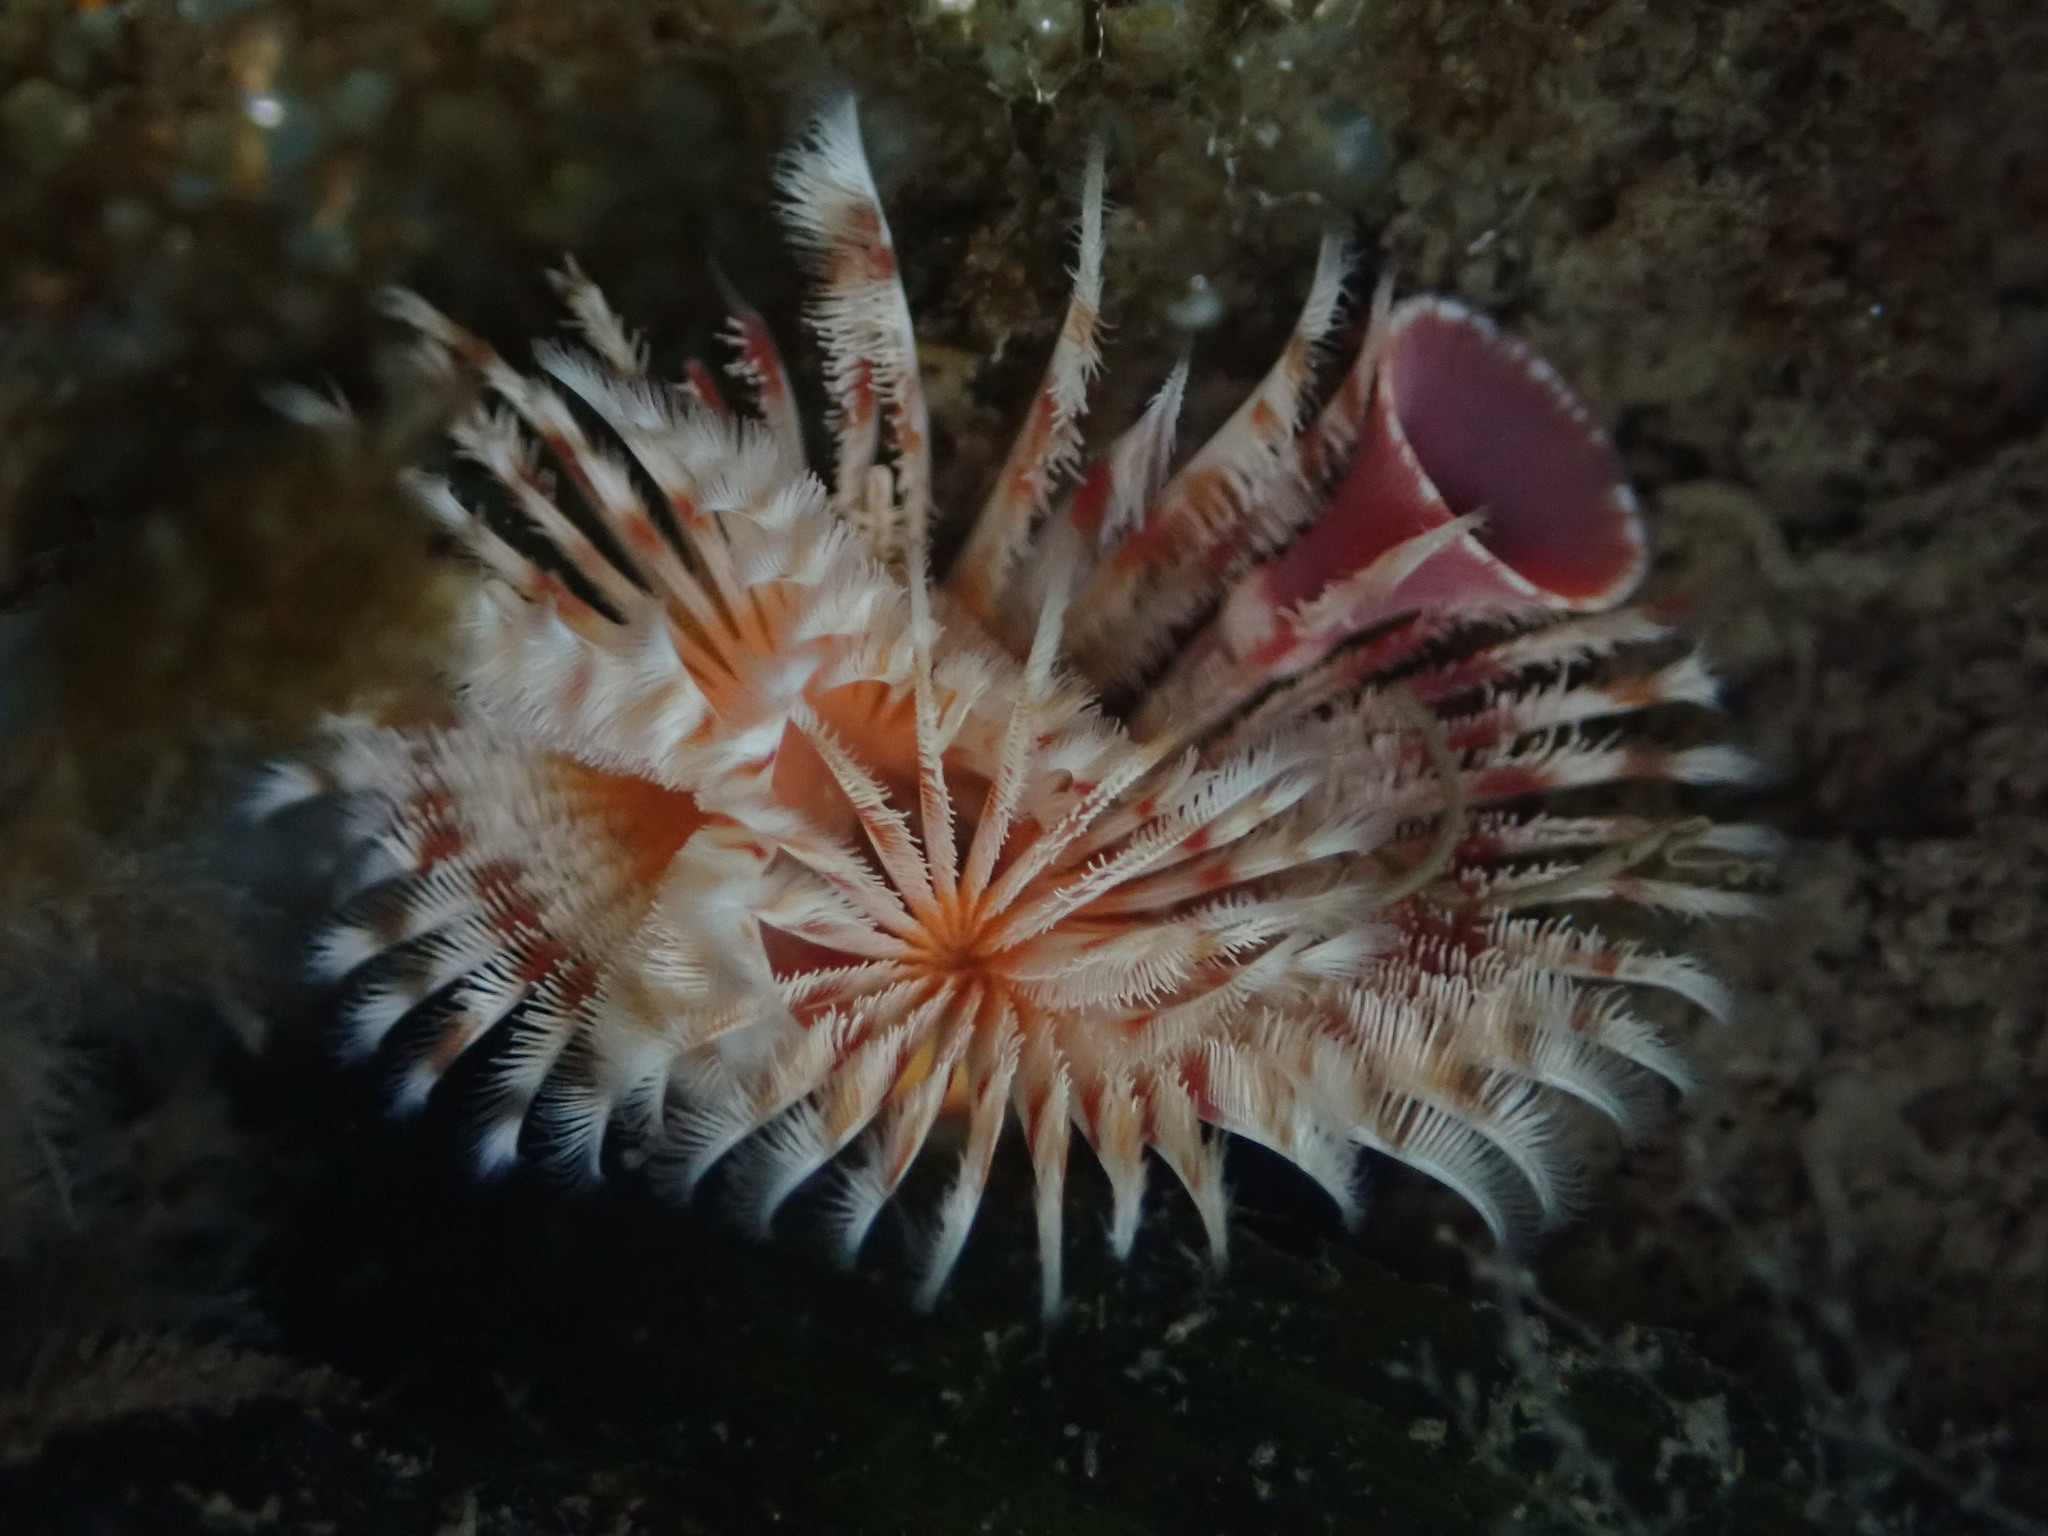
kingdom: Animalia
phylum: Annelida
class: Polychaeta
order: Sabellida
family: Serpulidae
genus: Serpula
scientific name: Serpula columbiana
